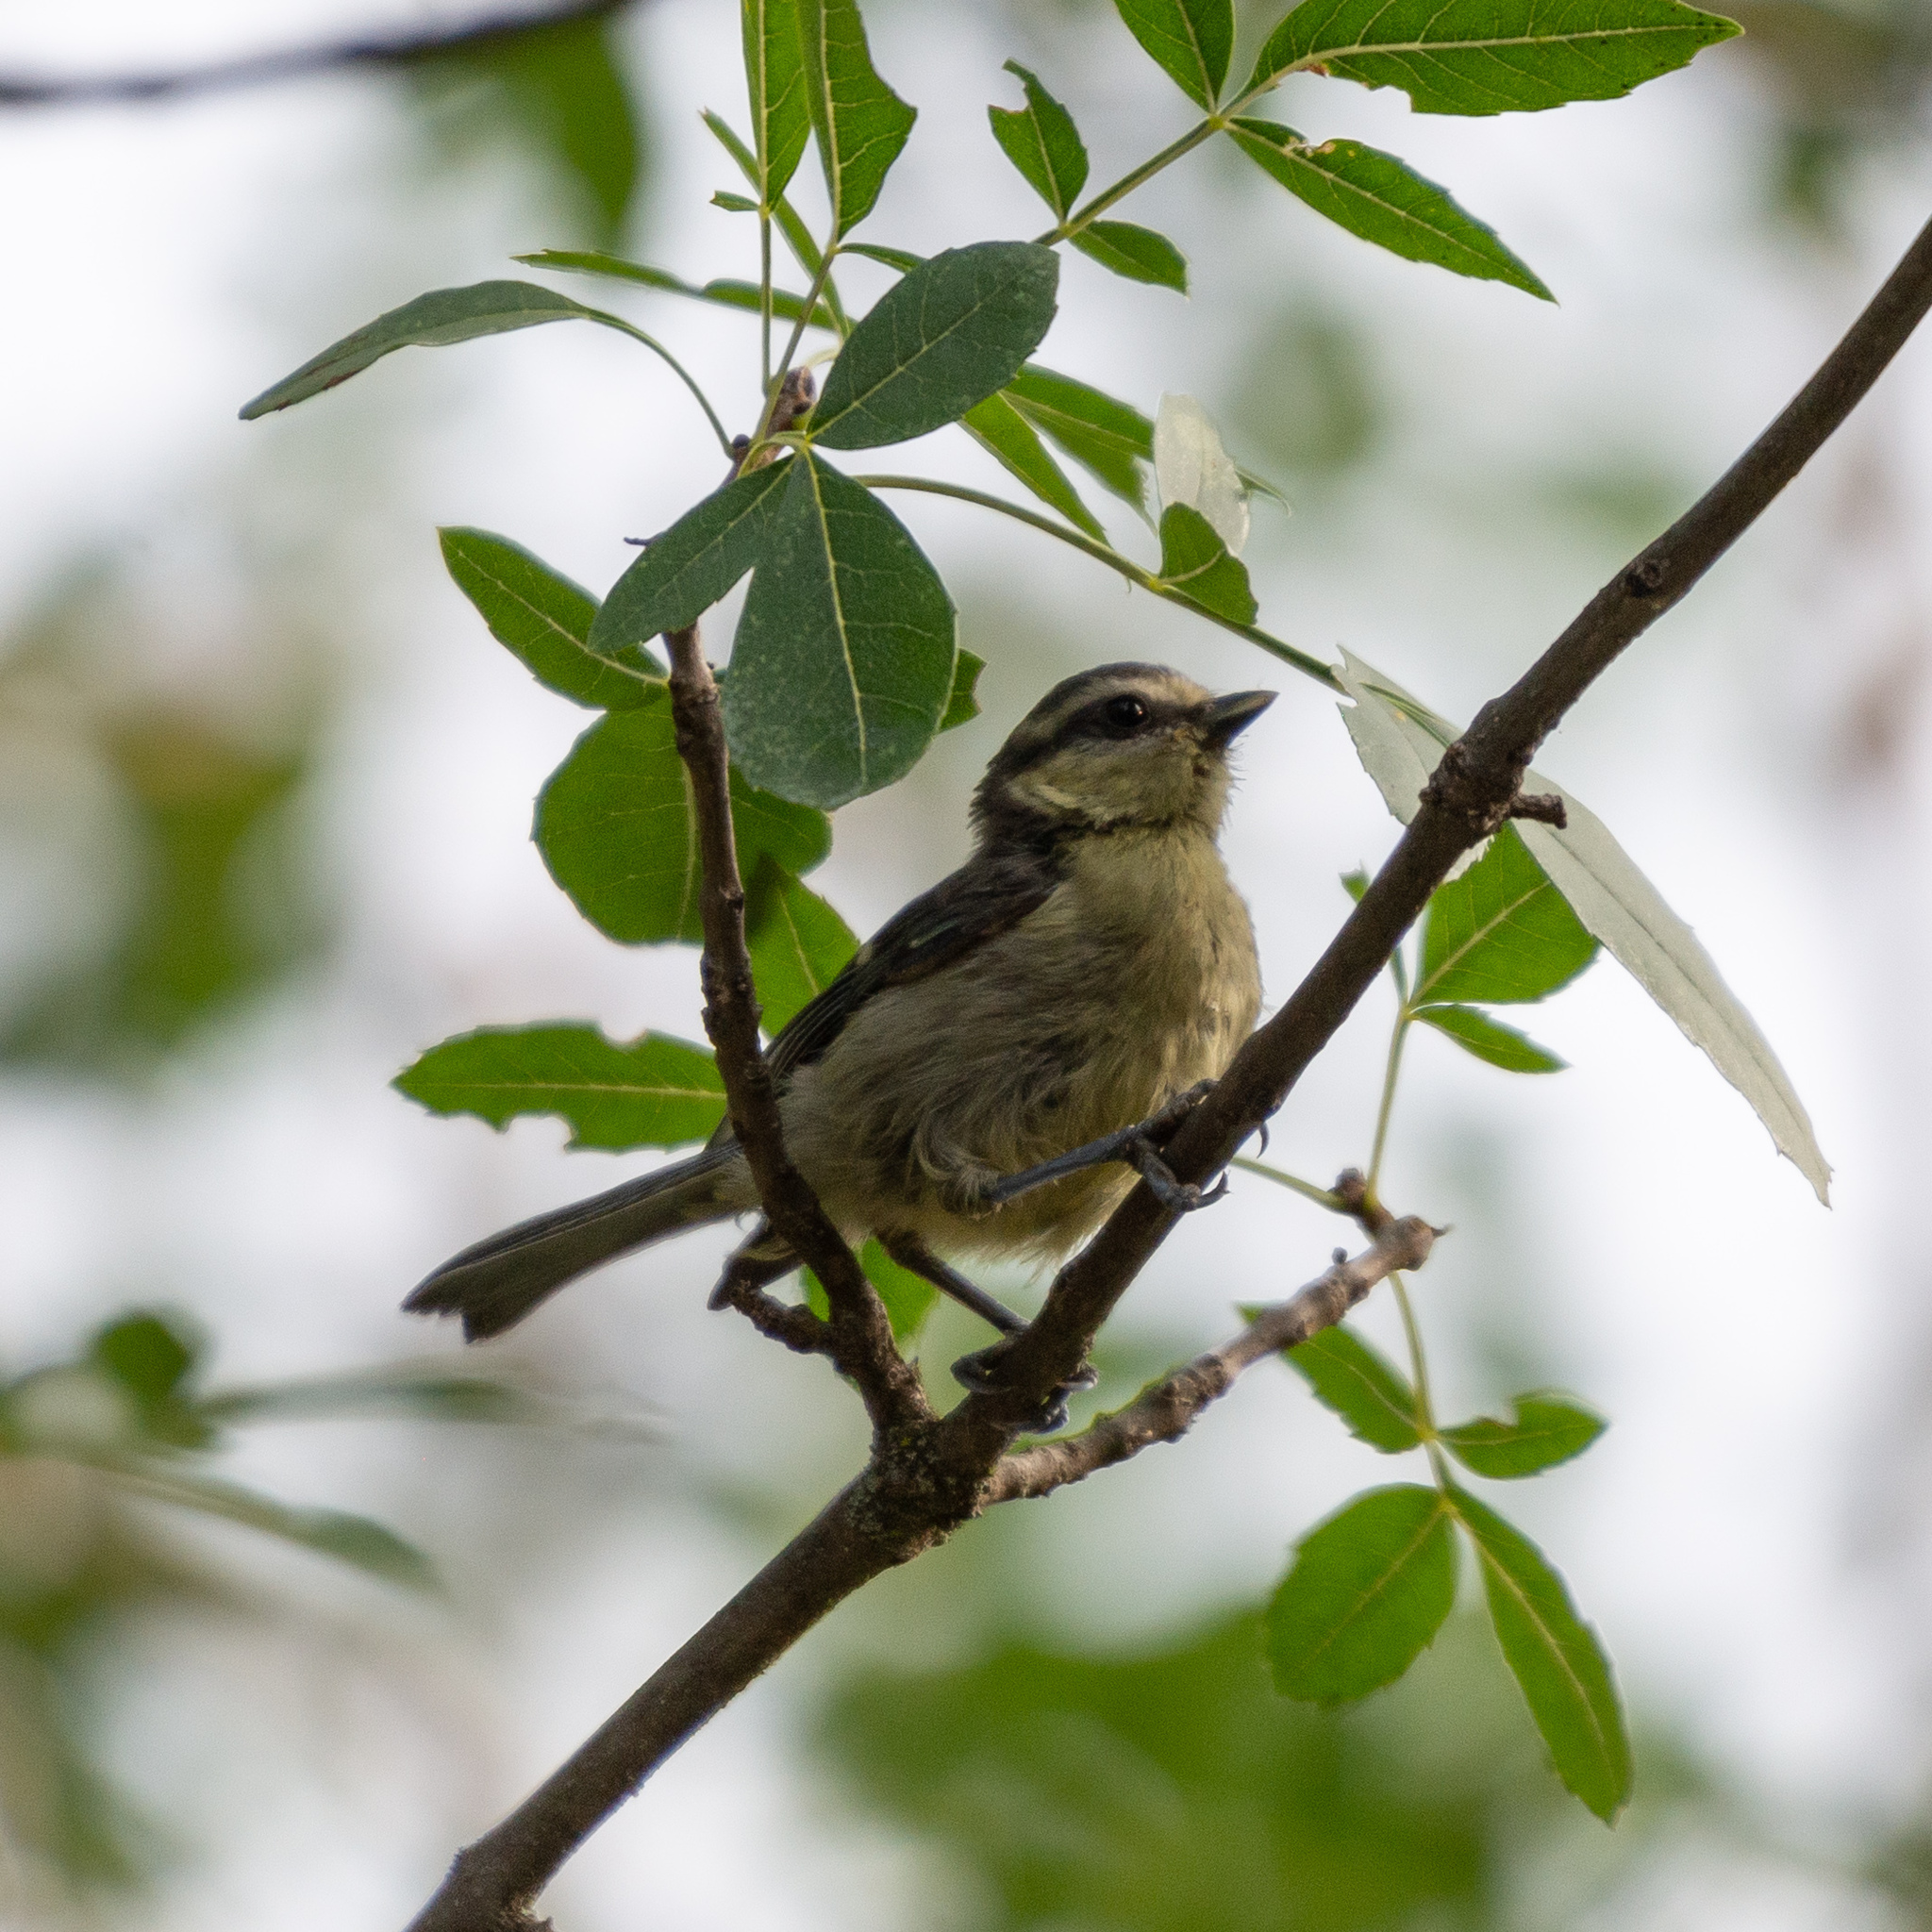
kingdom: Animalia
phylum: Chordata
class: Aves
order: Passeriformes
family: Paridae
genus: Cyanistes
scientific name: Cyanistes caeruleus
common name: Eurasian blue tit
